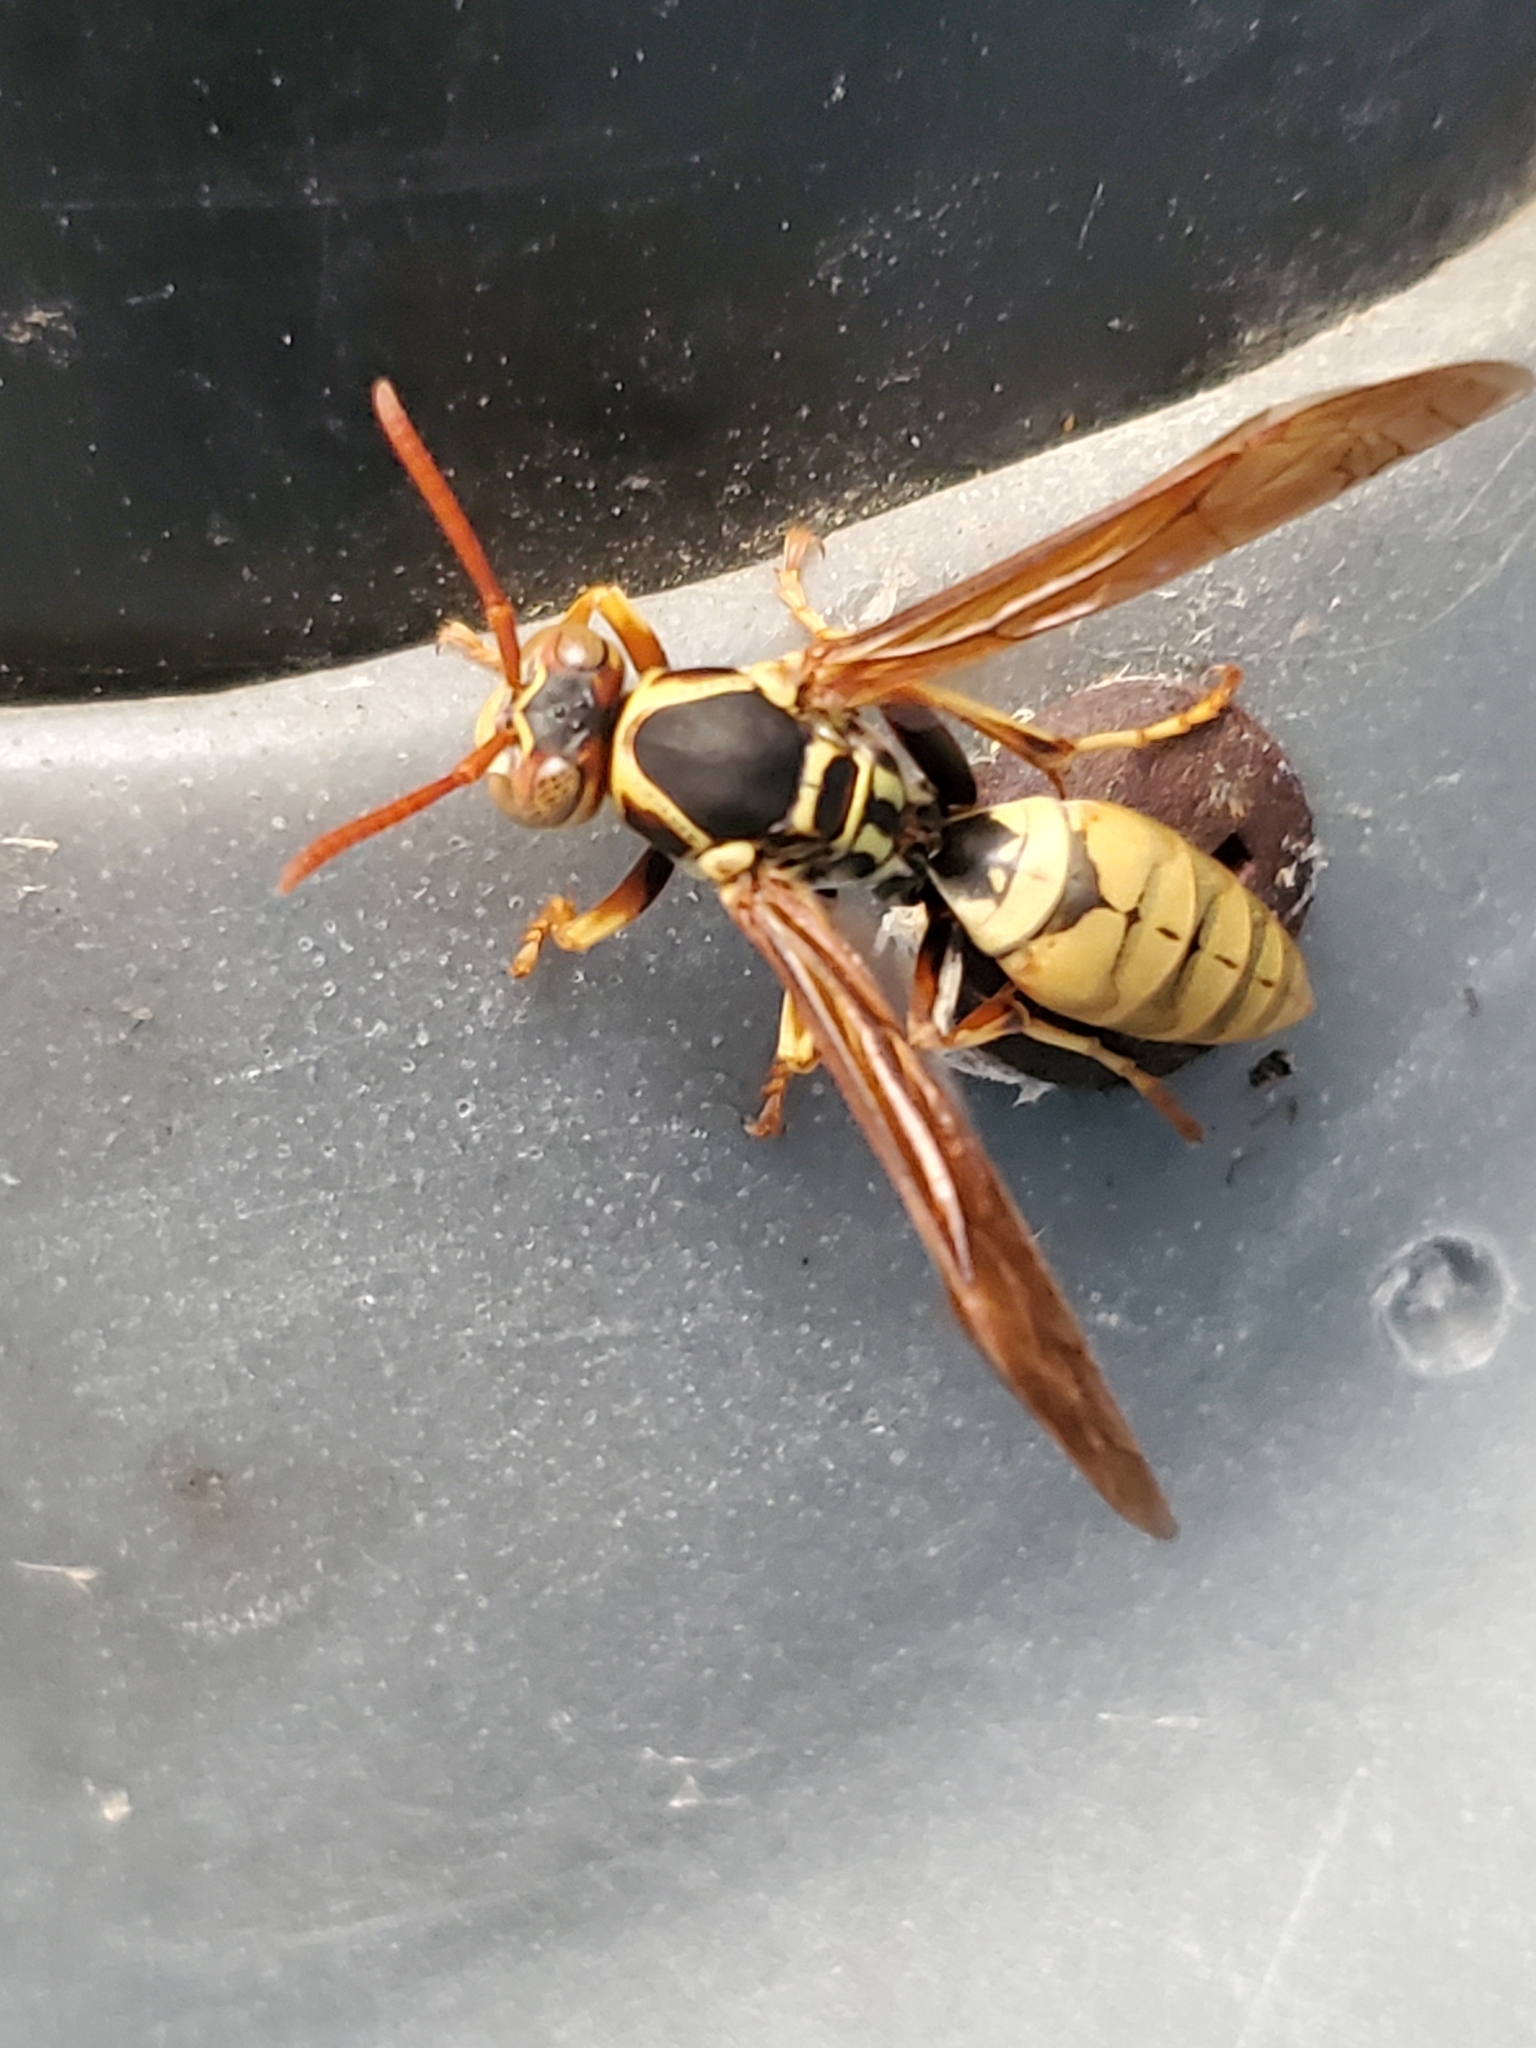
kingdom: Animalia
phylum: Arthropoda
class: Insecta
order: Hymenoptera
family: Eumenidae
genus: Polistes
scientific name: Polistes aurifer
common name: Paper wasp
